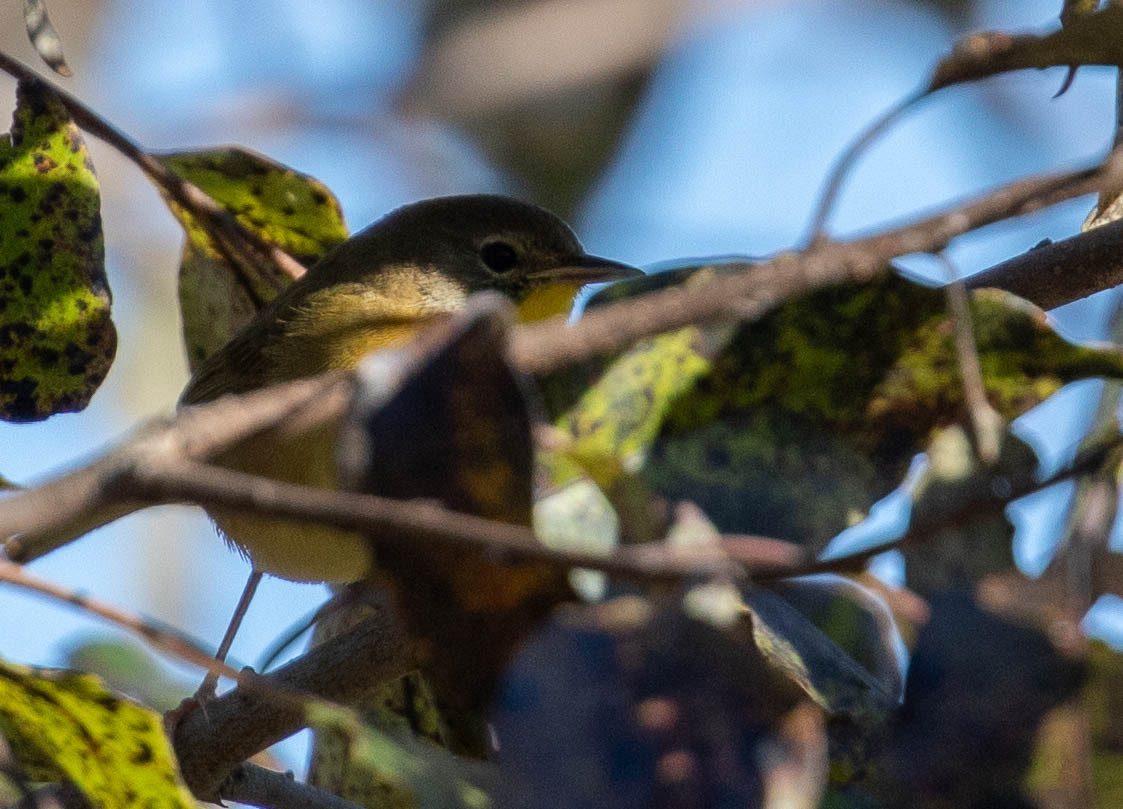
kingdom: Animalia
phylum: Chordata
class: Aves
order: Passeriformes
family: Parulidae
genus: Geothlypis
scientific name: Geothlypis trichas
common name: Common yellowthroat
